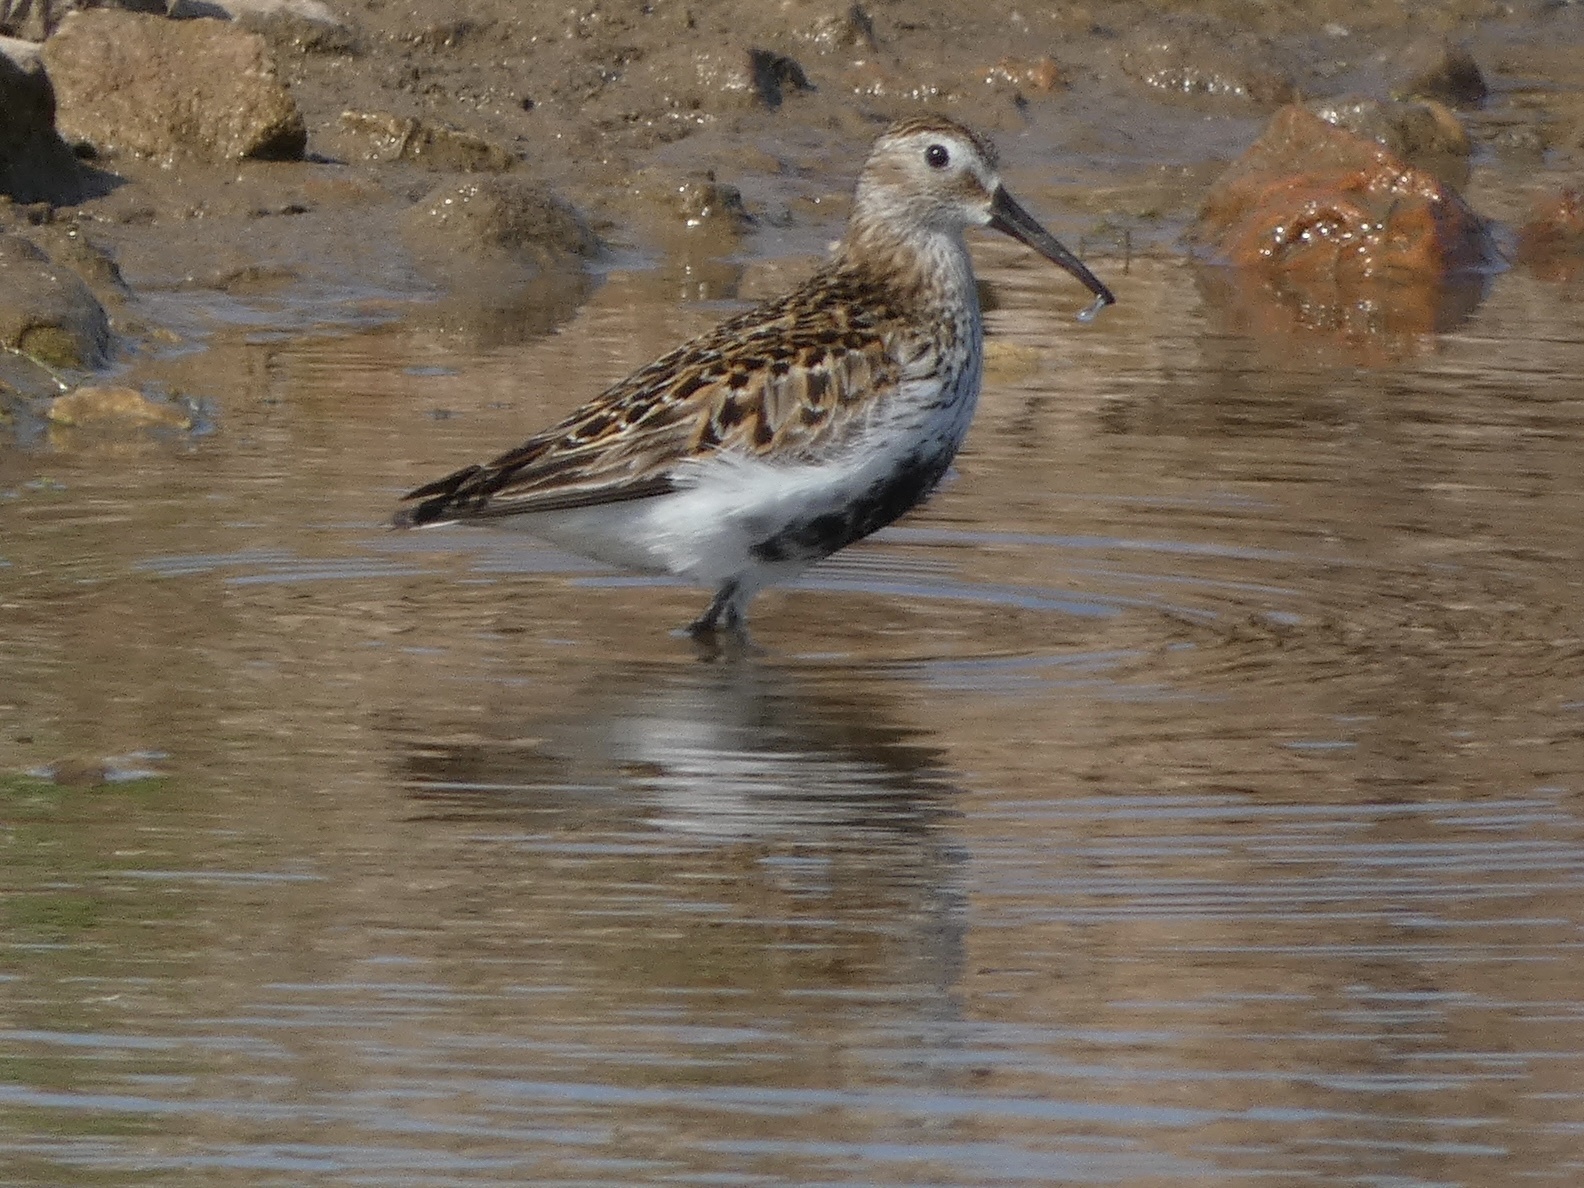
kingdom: Animalia
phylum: Chordata
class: Aves
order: Charadriiformes
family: Scolopacidae
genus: Calidris
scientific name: Calidris alpina
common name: Dunlin
